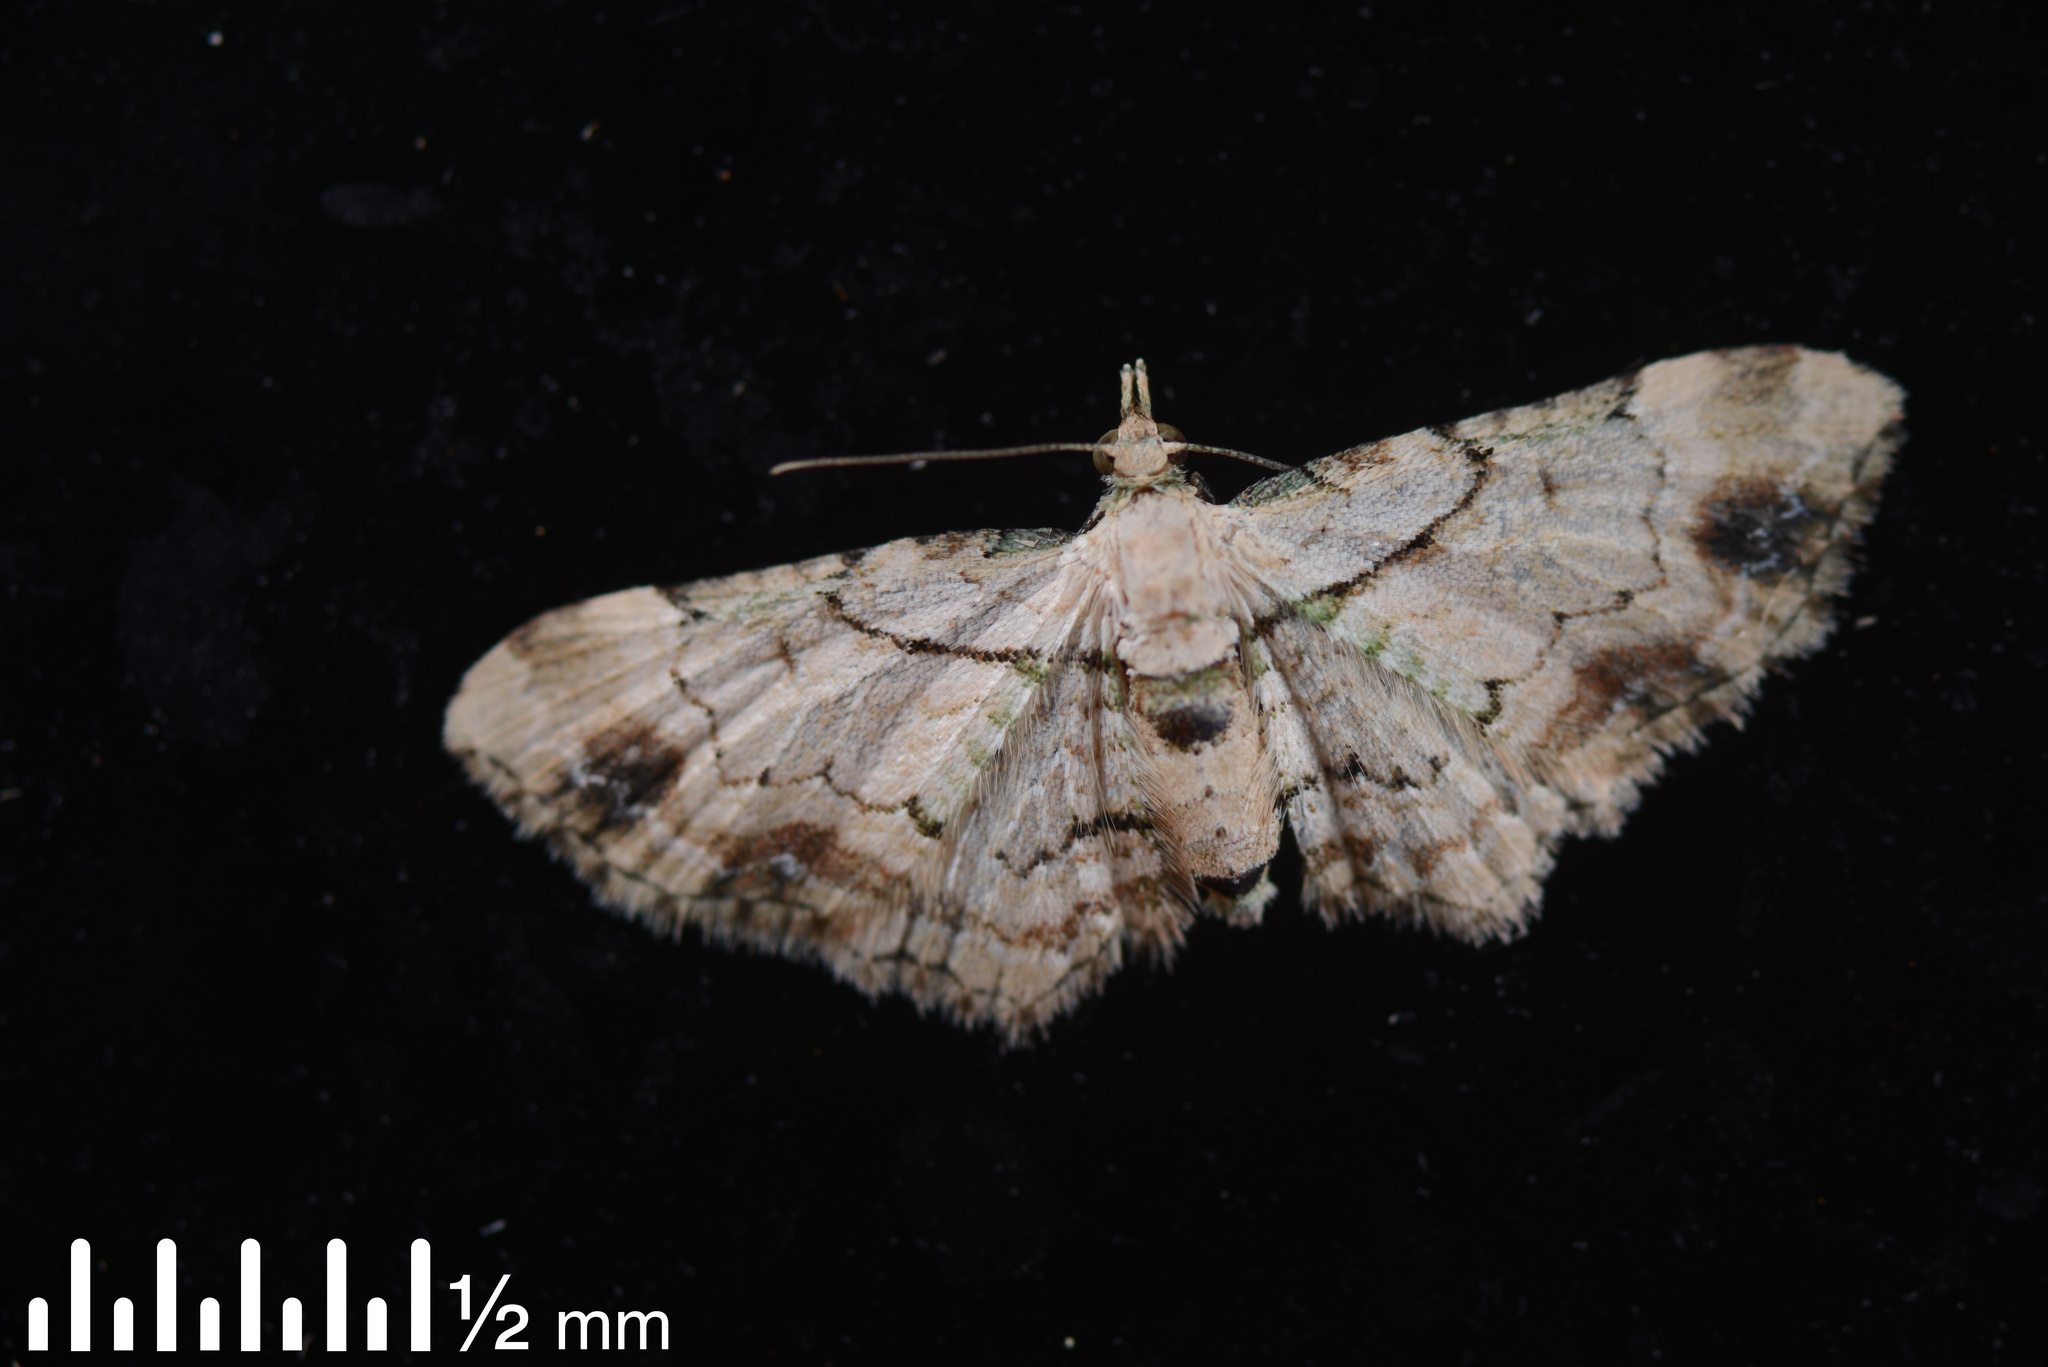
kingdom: Animalia
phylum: Arthropoda
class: Insecta
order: Lepidoptera
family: Geometridae
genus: Chloroclystis
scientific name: Chloroclystis
